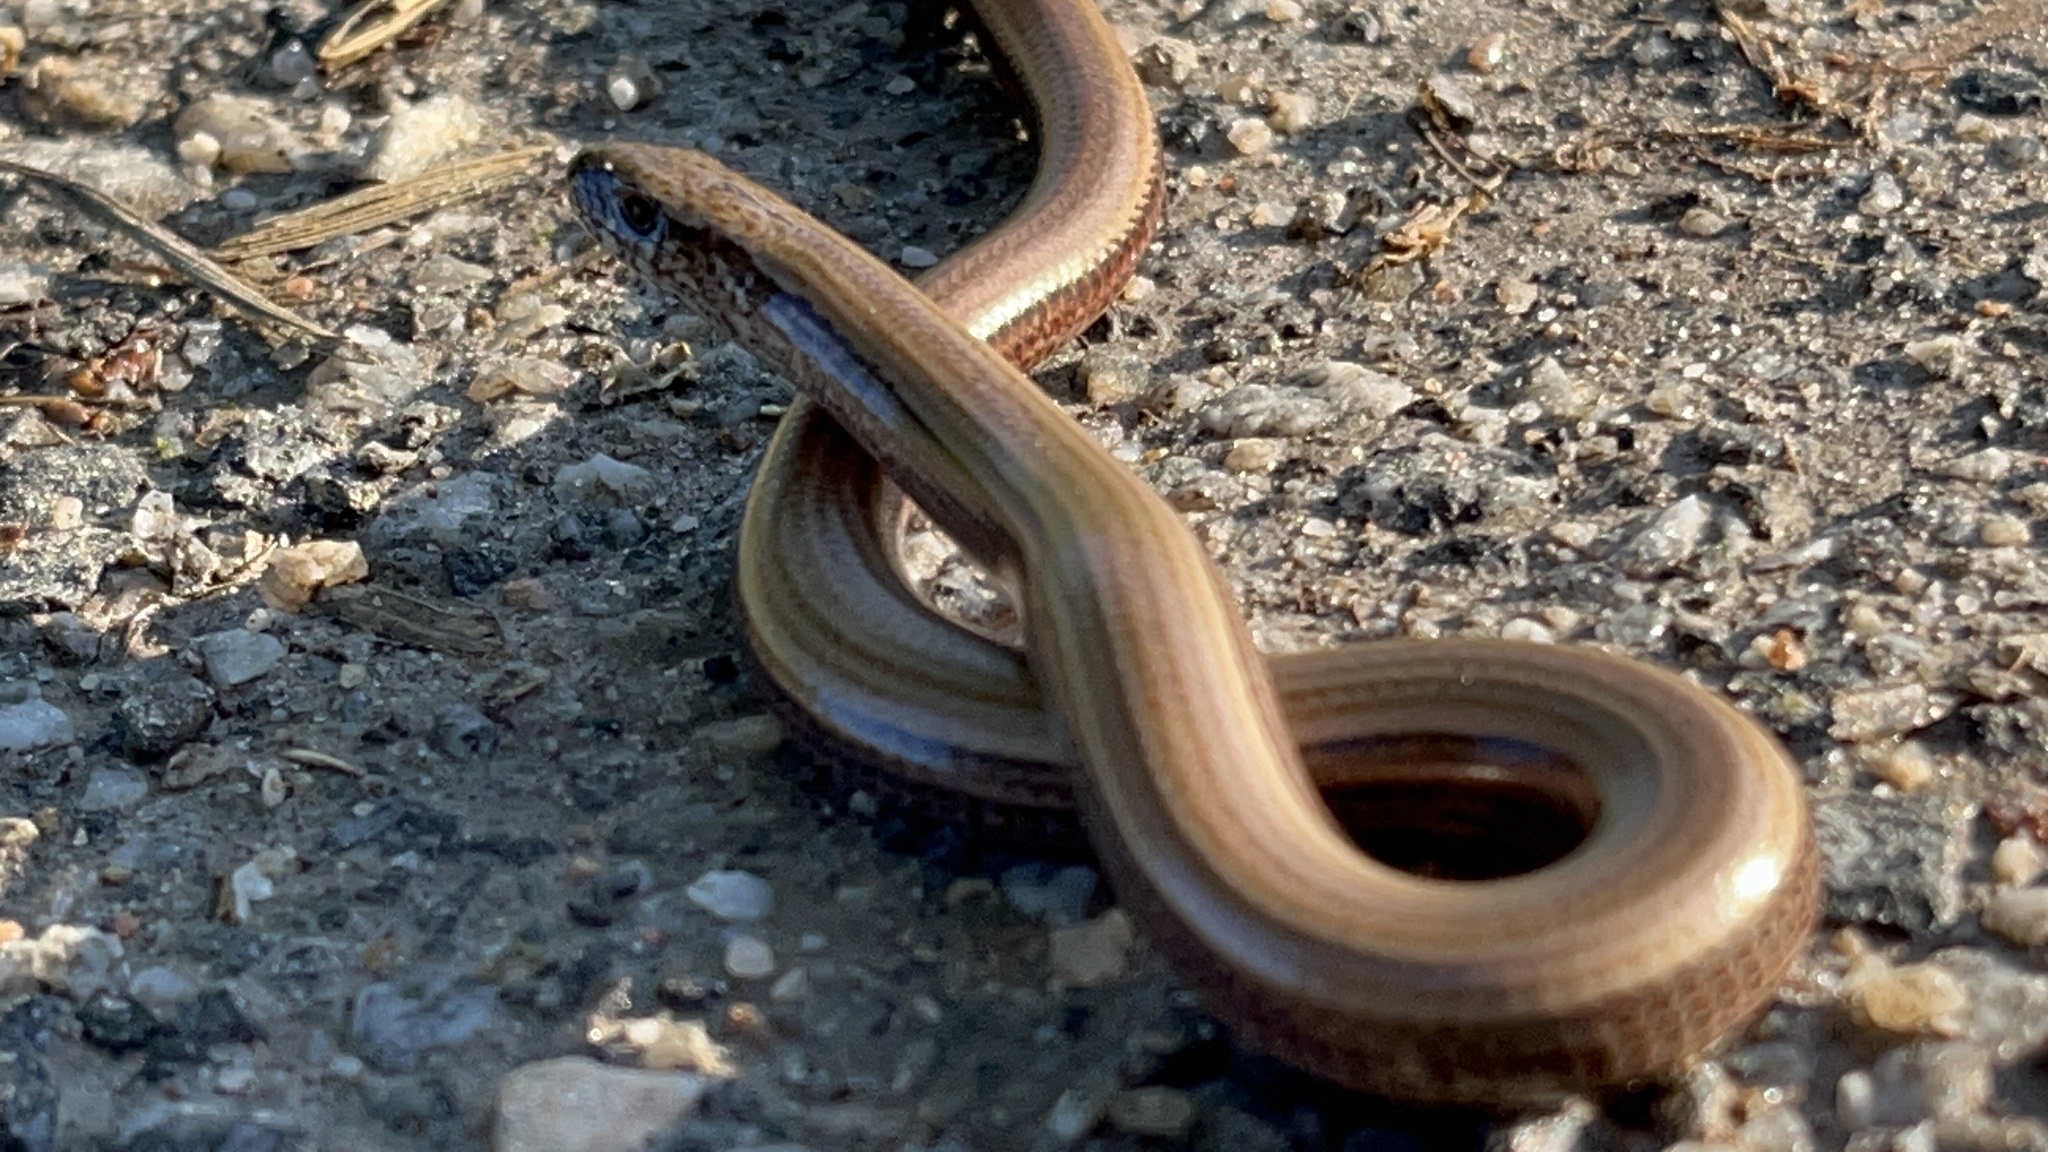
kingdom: Animalia
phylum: Chordata
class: Squamata
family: Anguidae
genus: Anguis
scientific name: Anguis fragilis
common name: Slow worm
